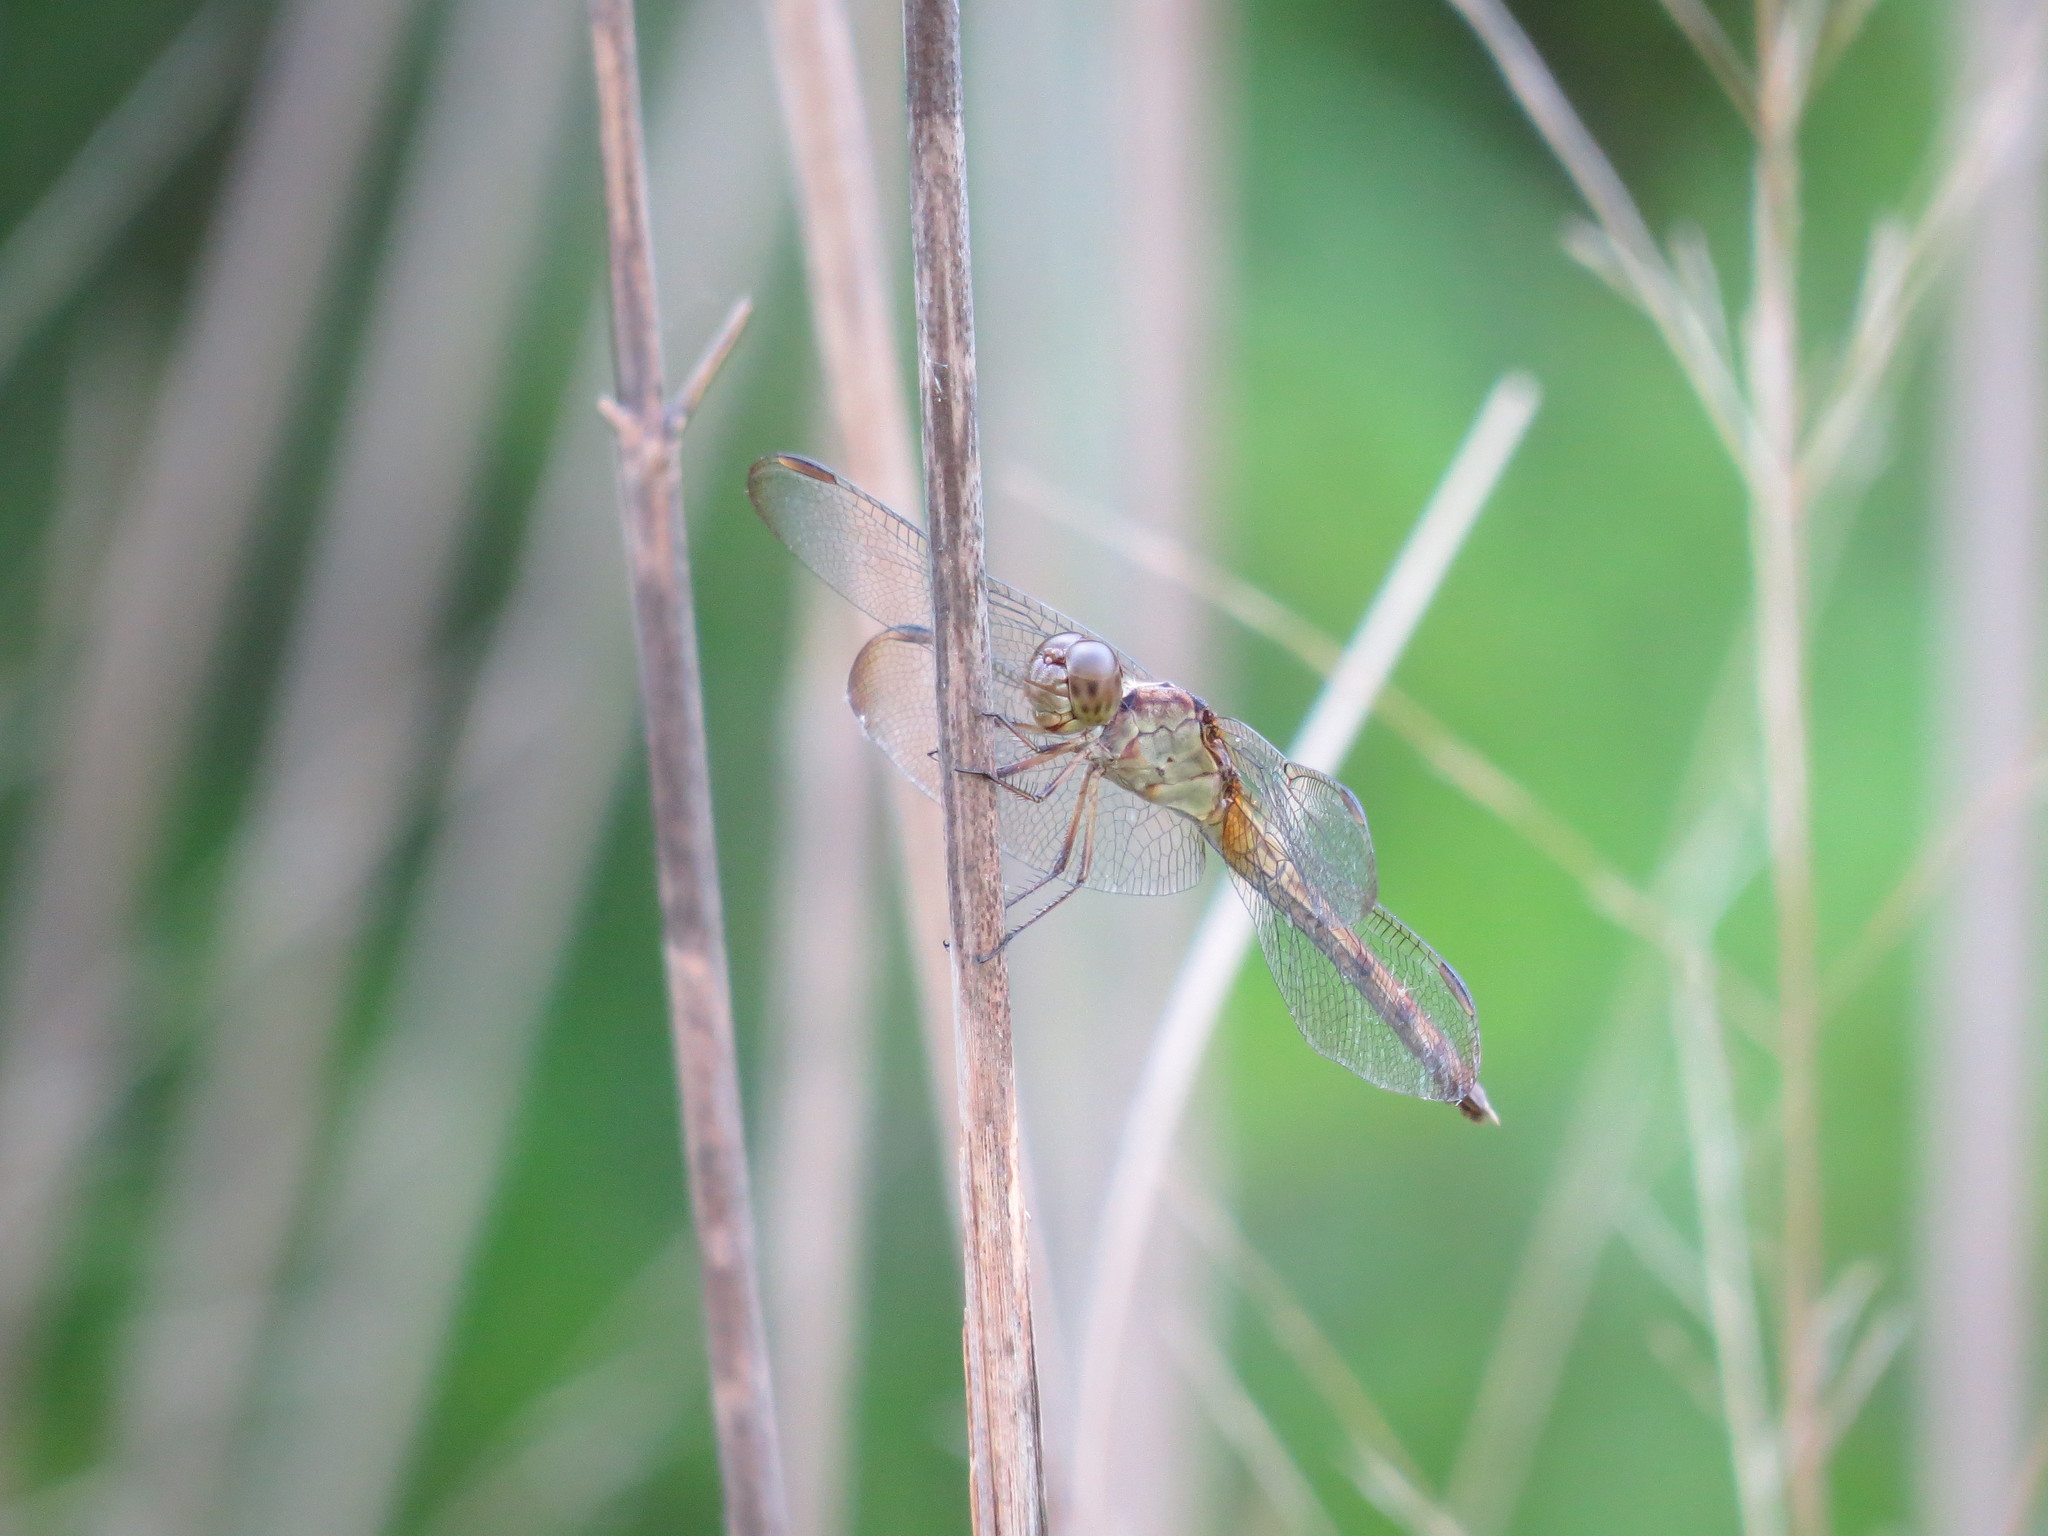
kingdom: Animalia
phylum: Arthropoda
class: Insecta
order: Odonata
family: Libellulidae
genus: Erythrodiplax
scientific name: Erythrodiplax umbrata
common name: Band-winged dragonlet
